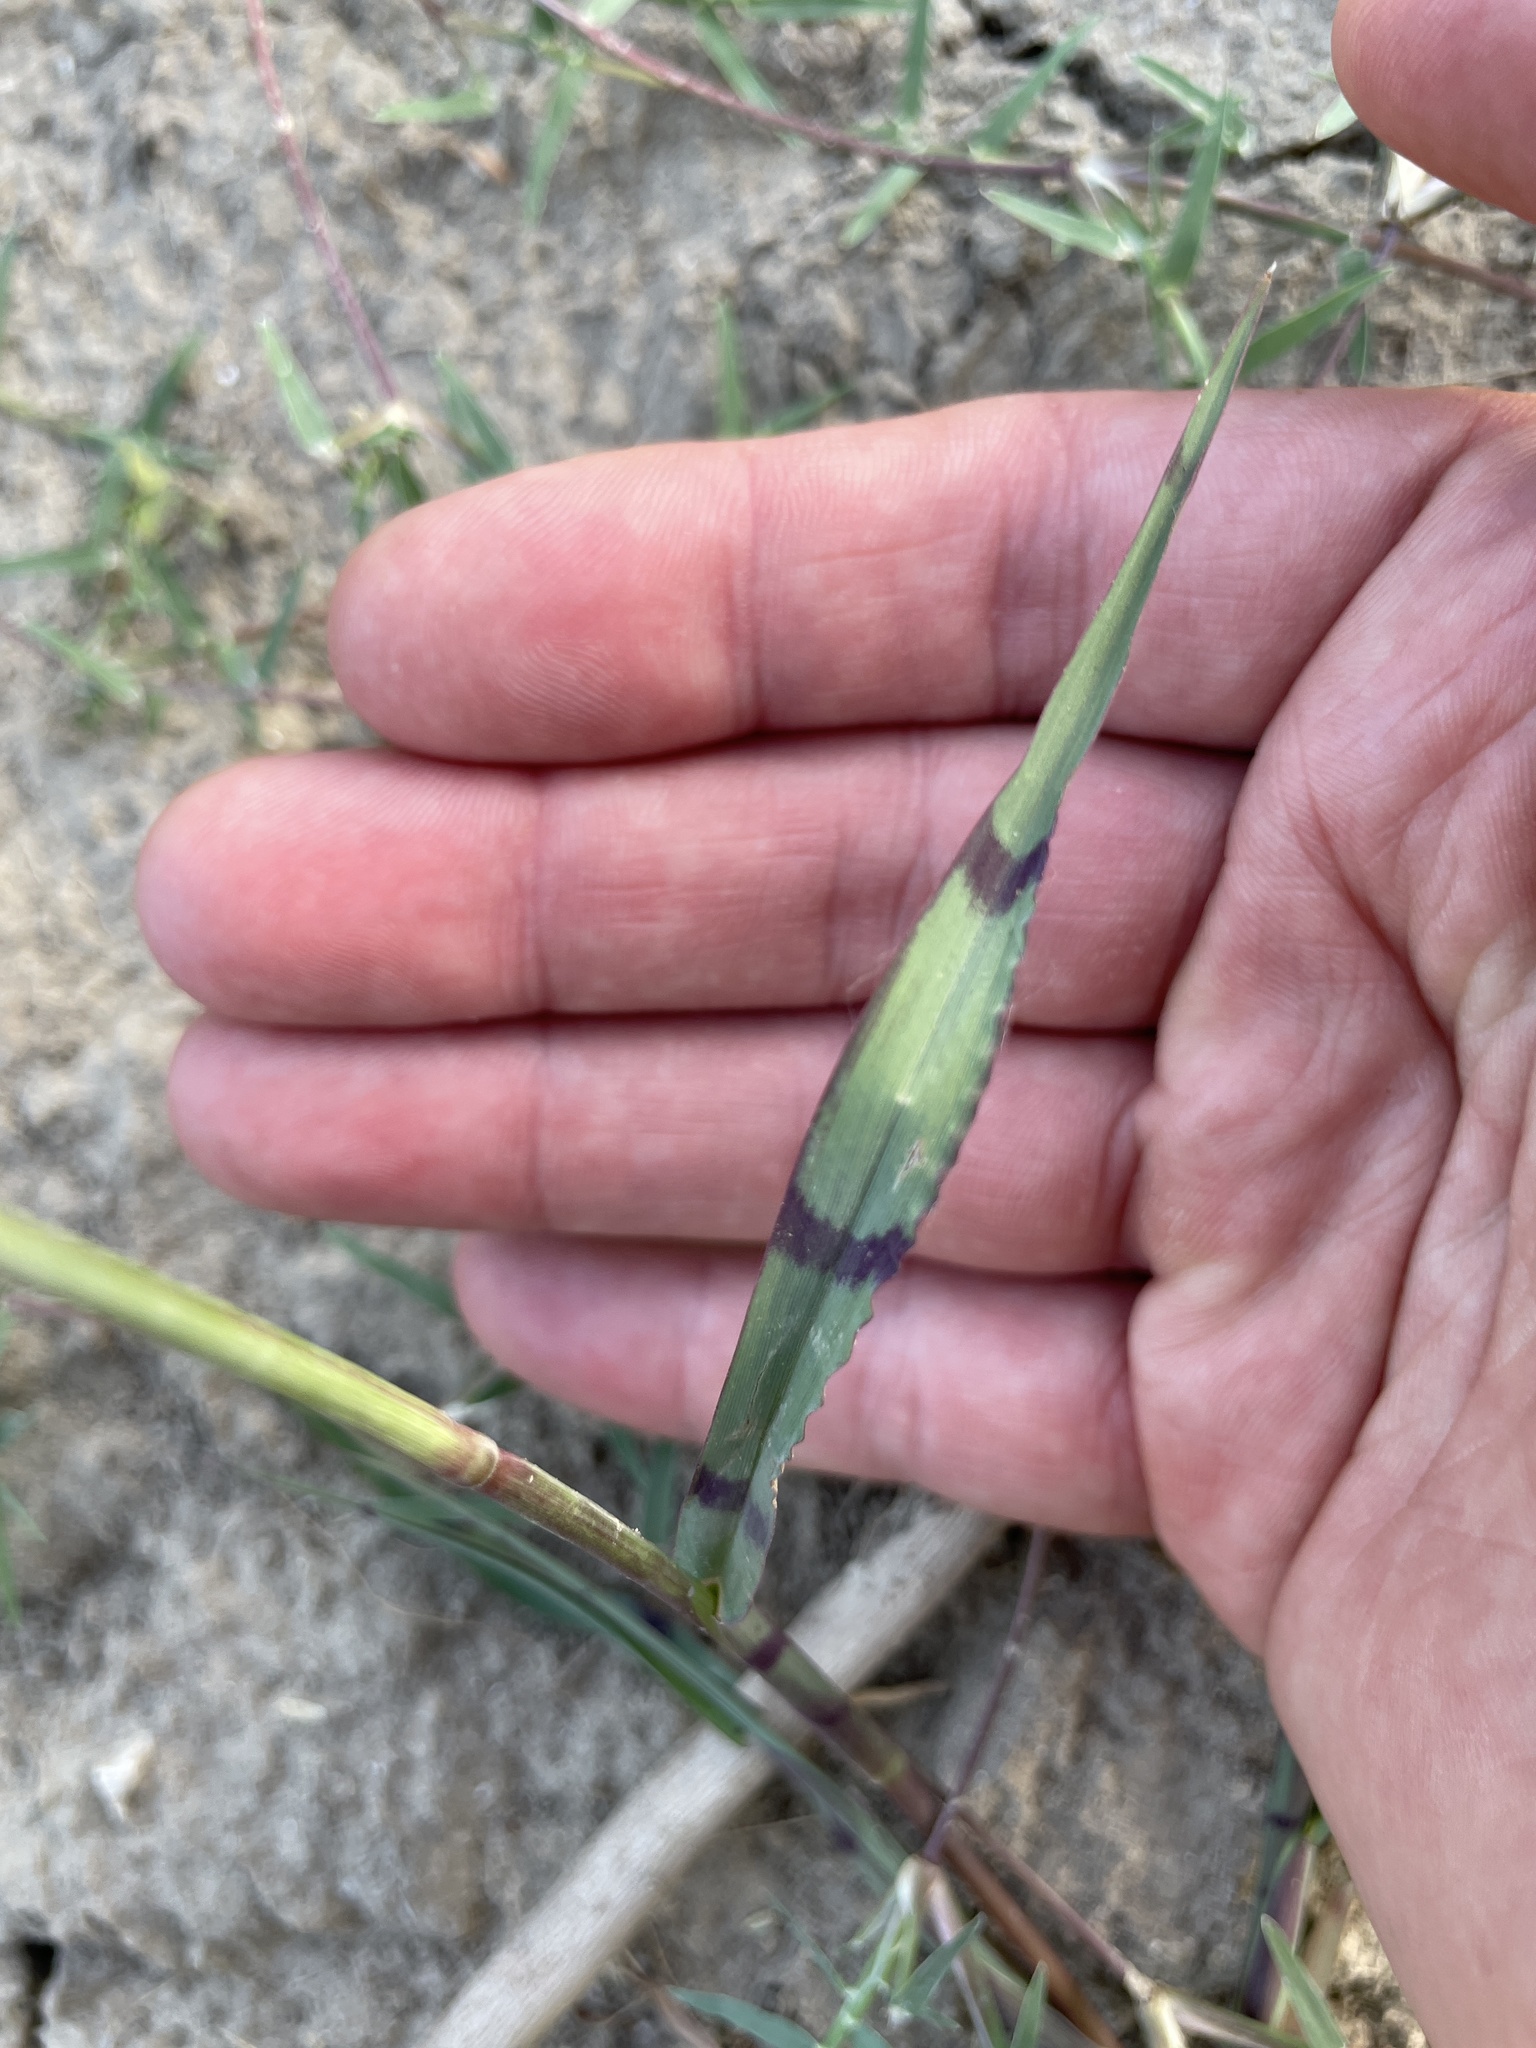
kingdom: Plantae
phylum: Tracheophyta
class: Liliopsida
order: Poales
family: Poaceae
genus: Echinochloa
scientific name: Echinochloa colonum
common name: Jungle rice
